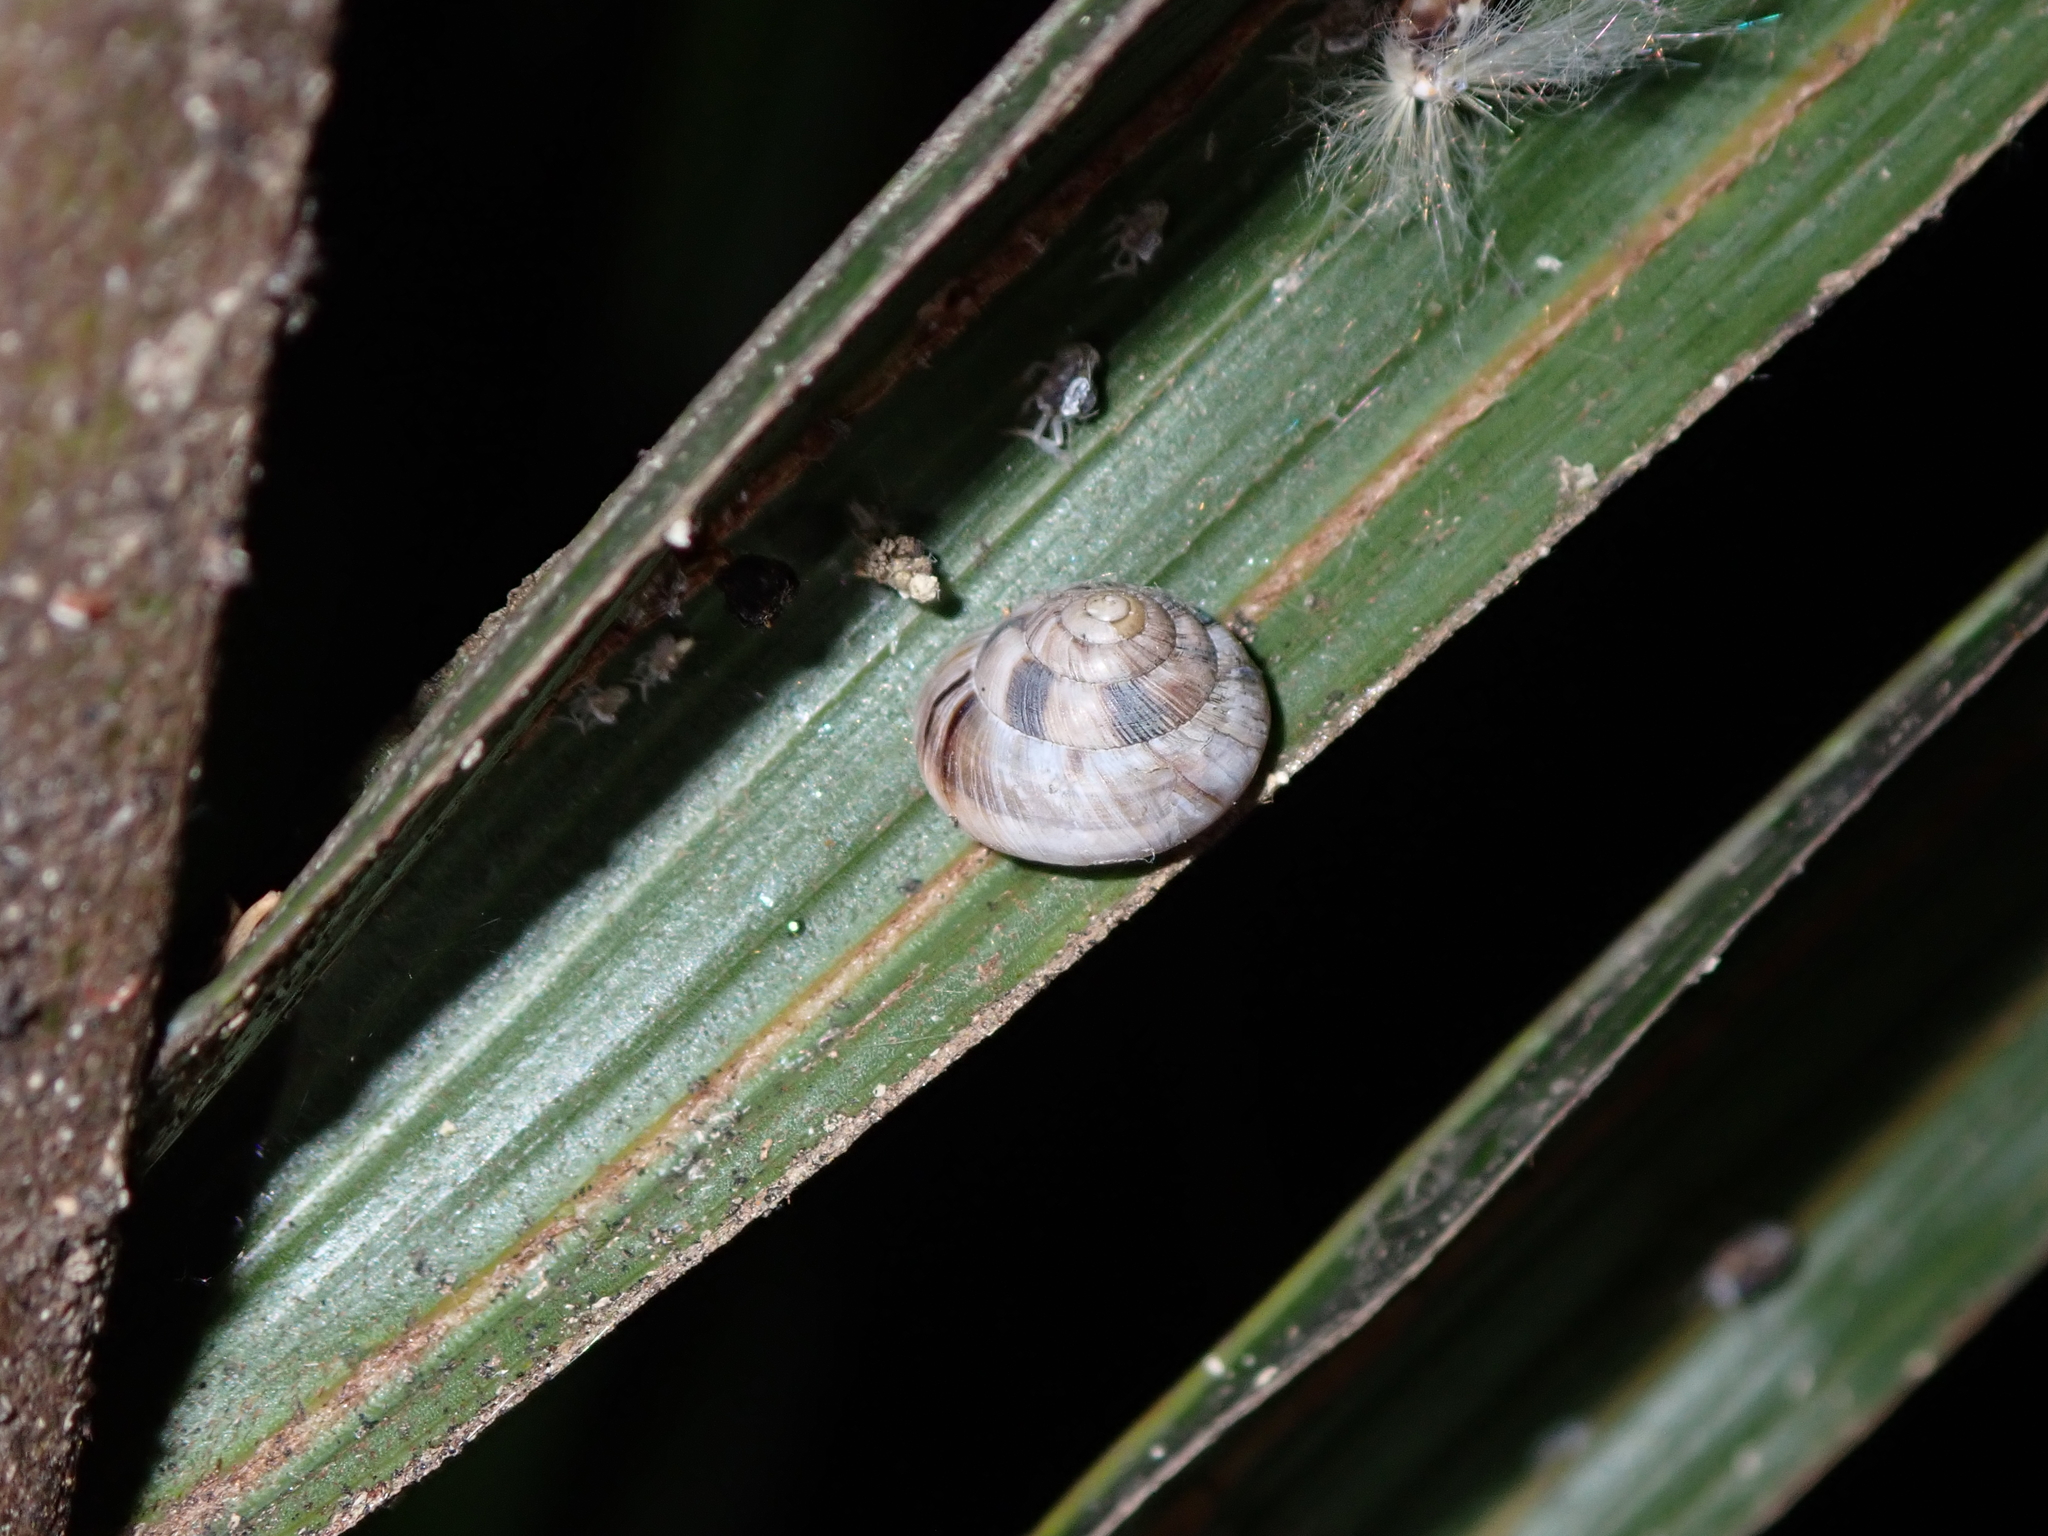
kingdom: Animalia
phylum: Mollusca
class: Gastropoda
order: Stylommatophora
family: Charopidae
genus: Serpho
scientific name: Serpho
